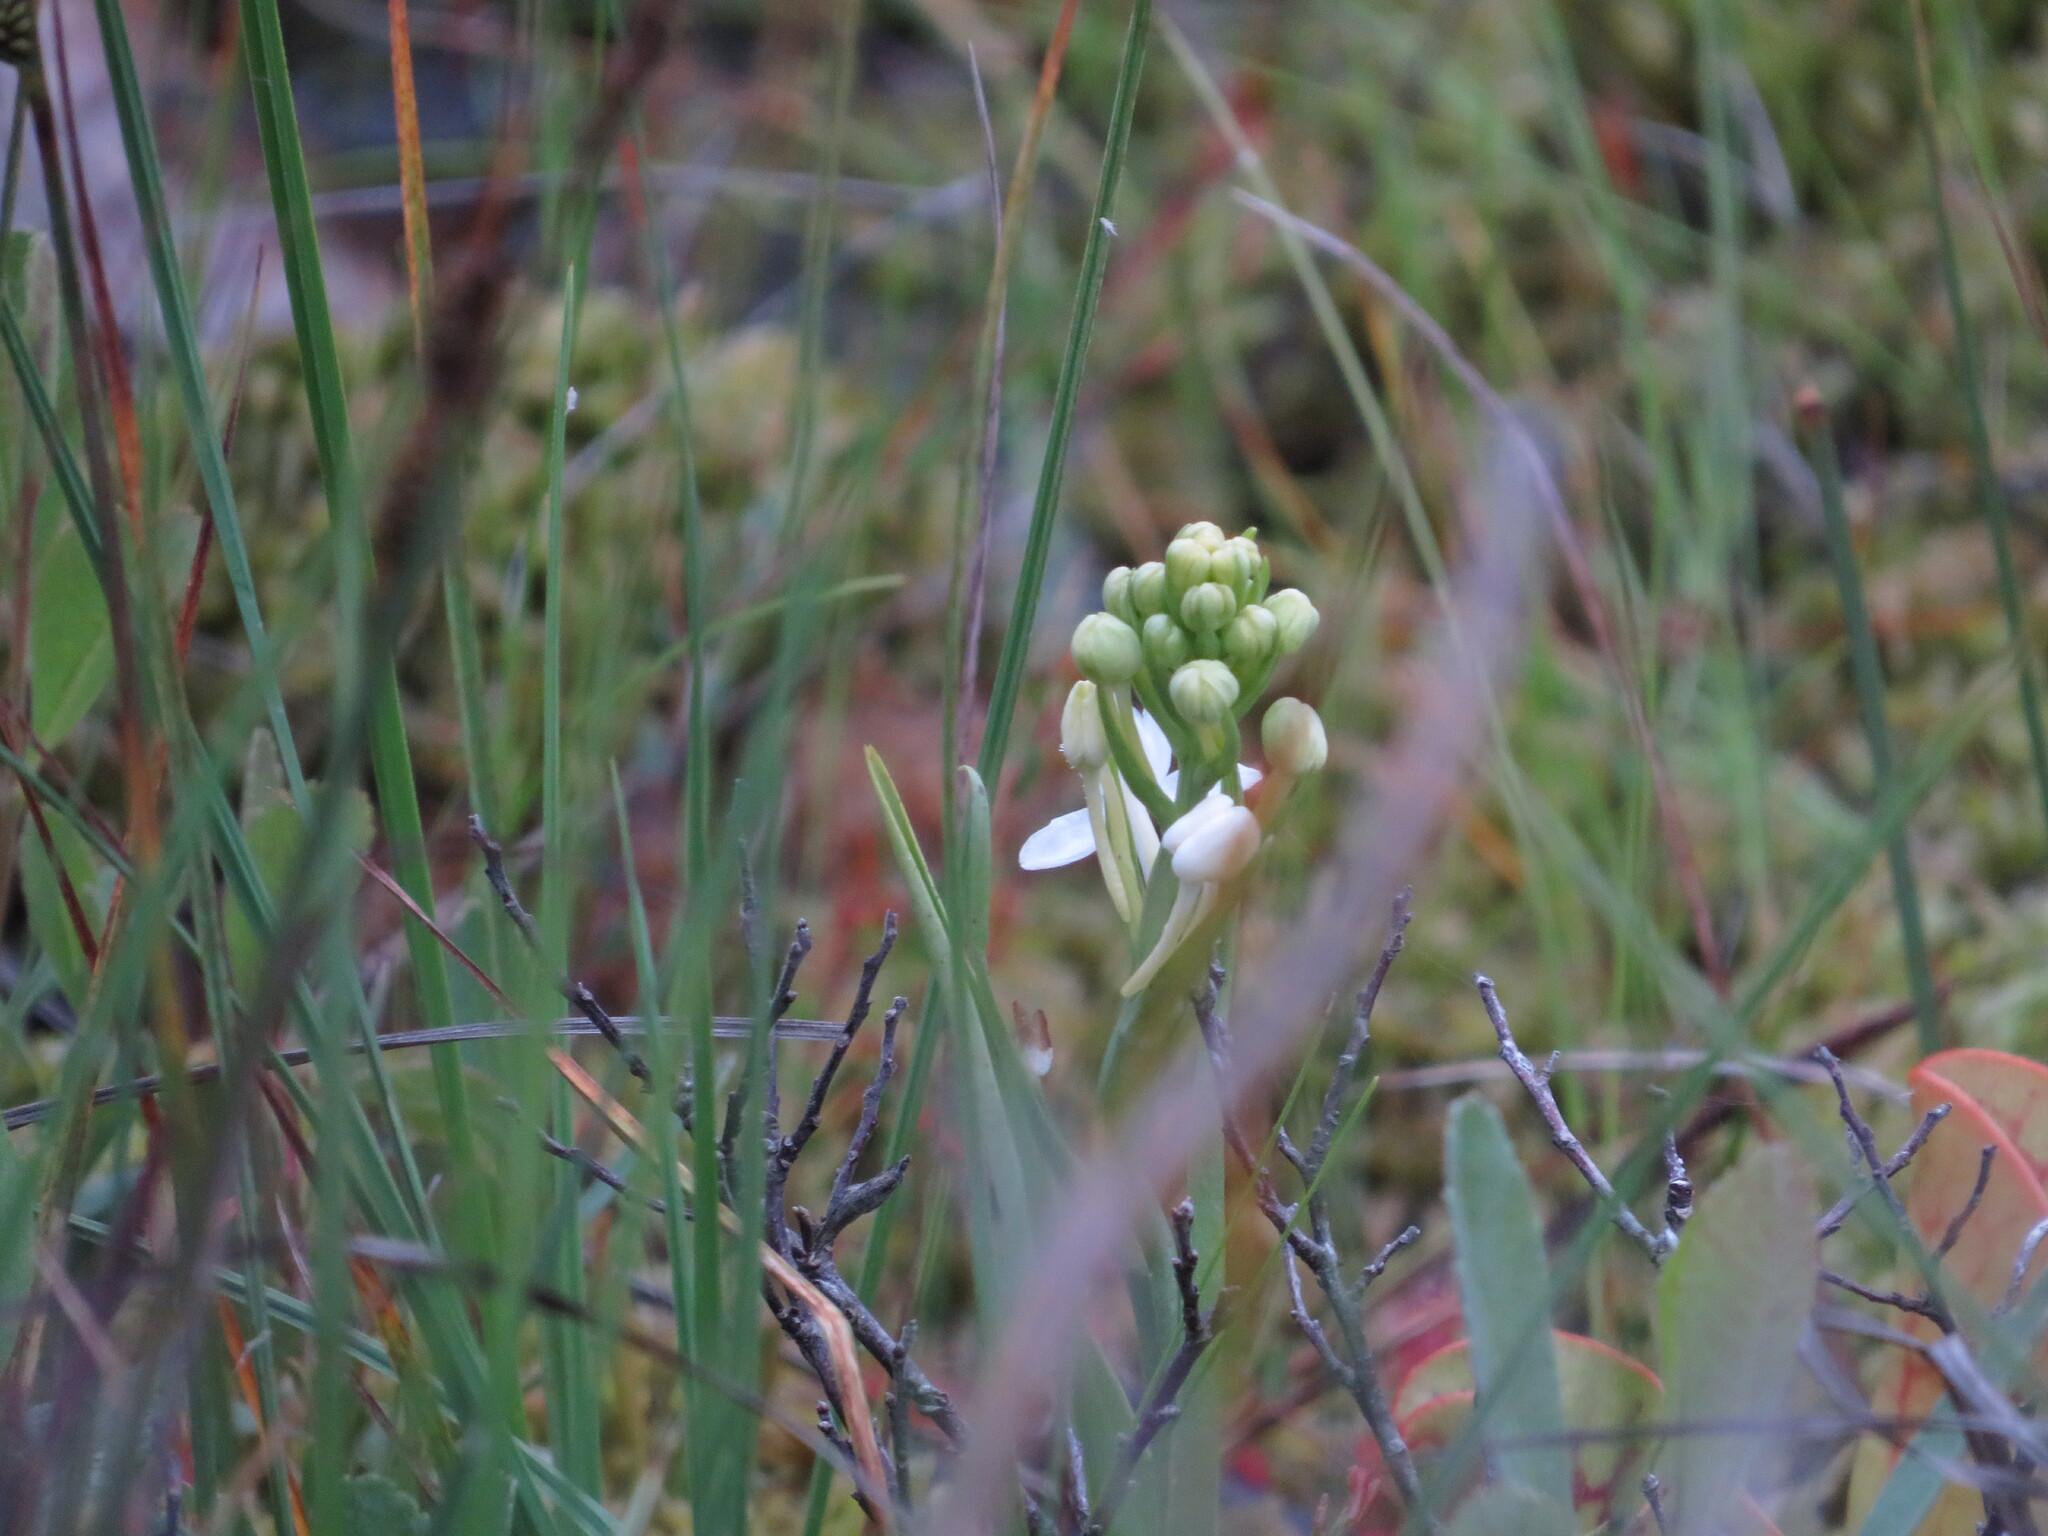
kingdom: Plantae
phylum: Tracheophyta
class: Liliopsida
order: Asparagales
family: Orchidaceae
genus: Platanthera
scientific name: Platanthera blephariglottis
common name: White fringed orchid
